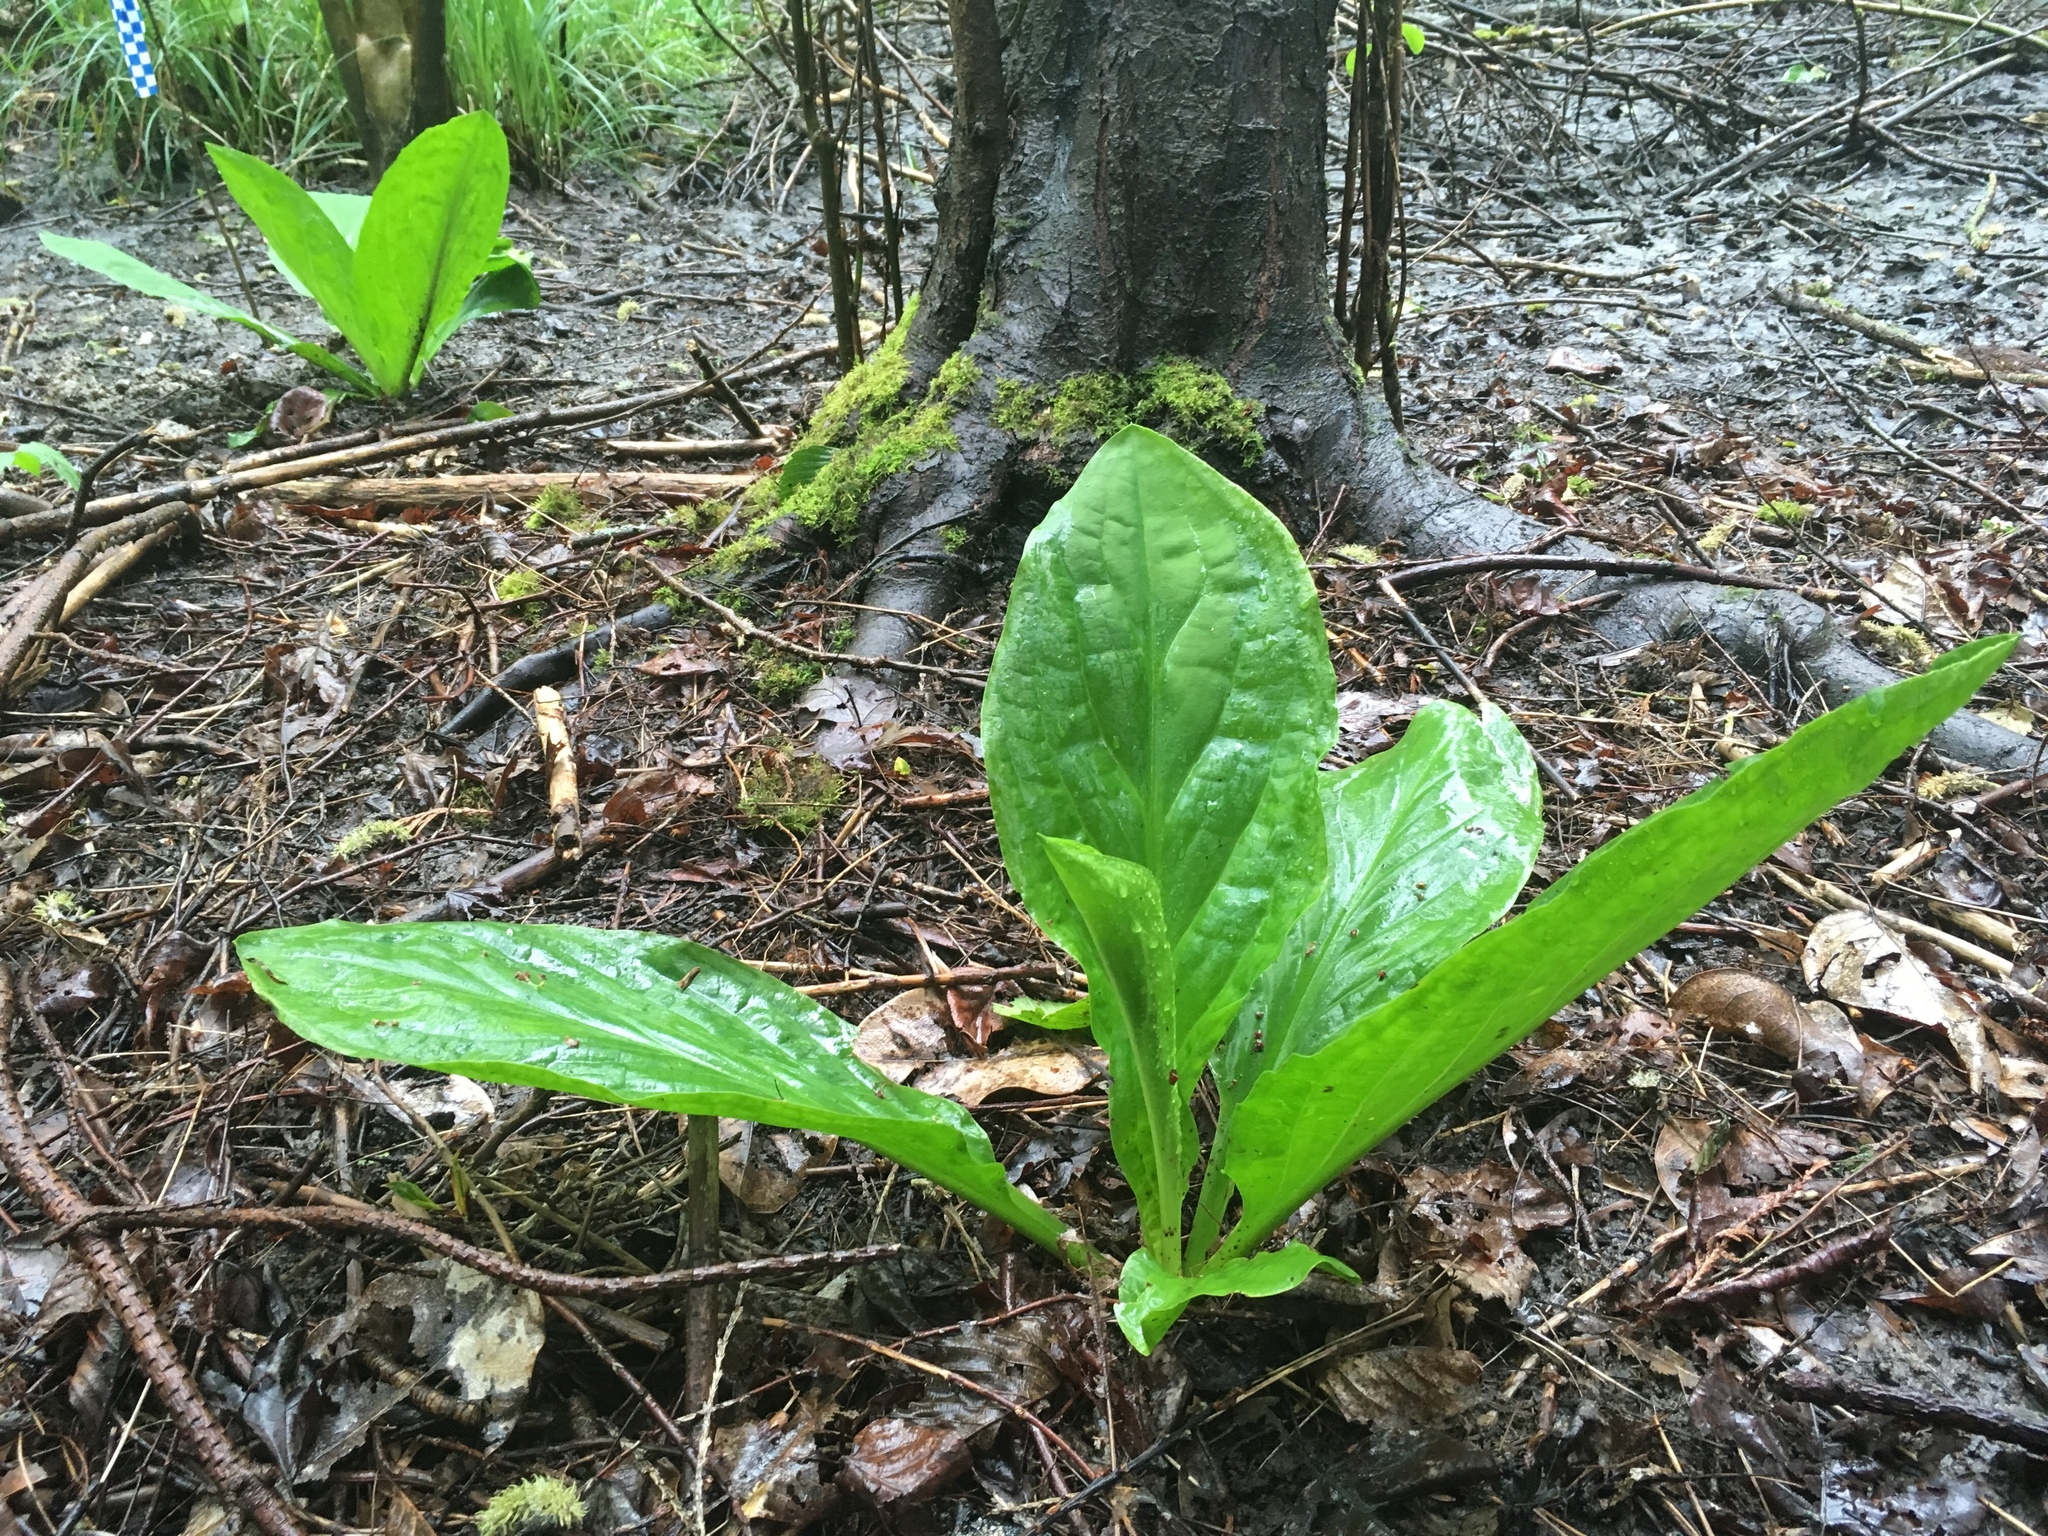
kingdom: Plantae
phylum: Tracheophyta
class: Liliopsida
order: Alismatales
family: Araceae
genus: Lysichiton
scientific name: Lysichiton americanus
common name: American skunk cabbage
